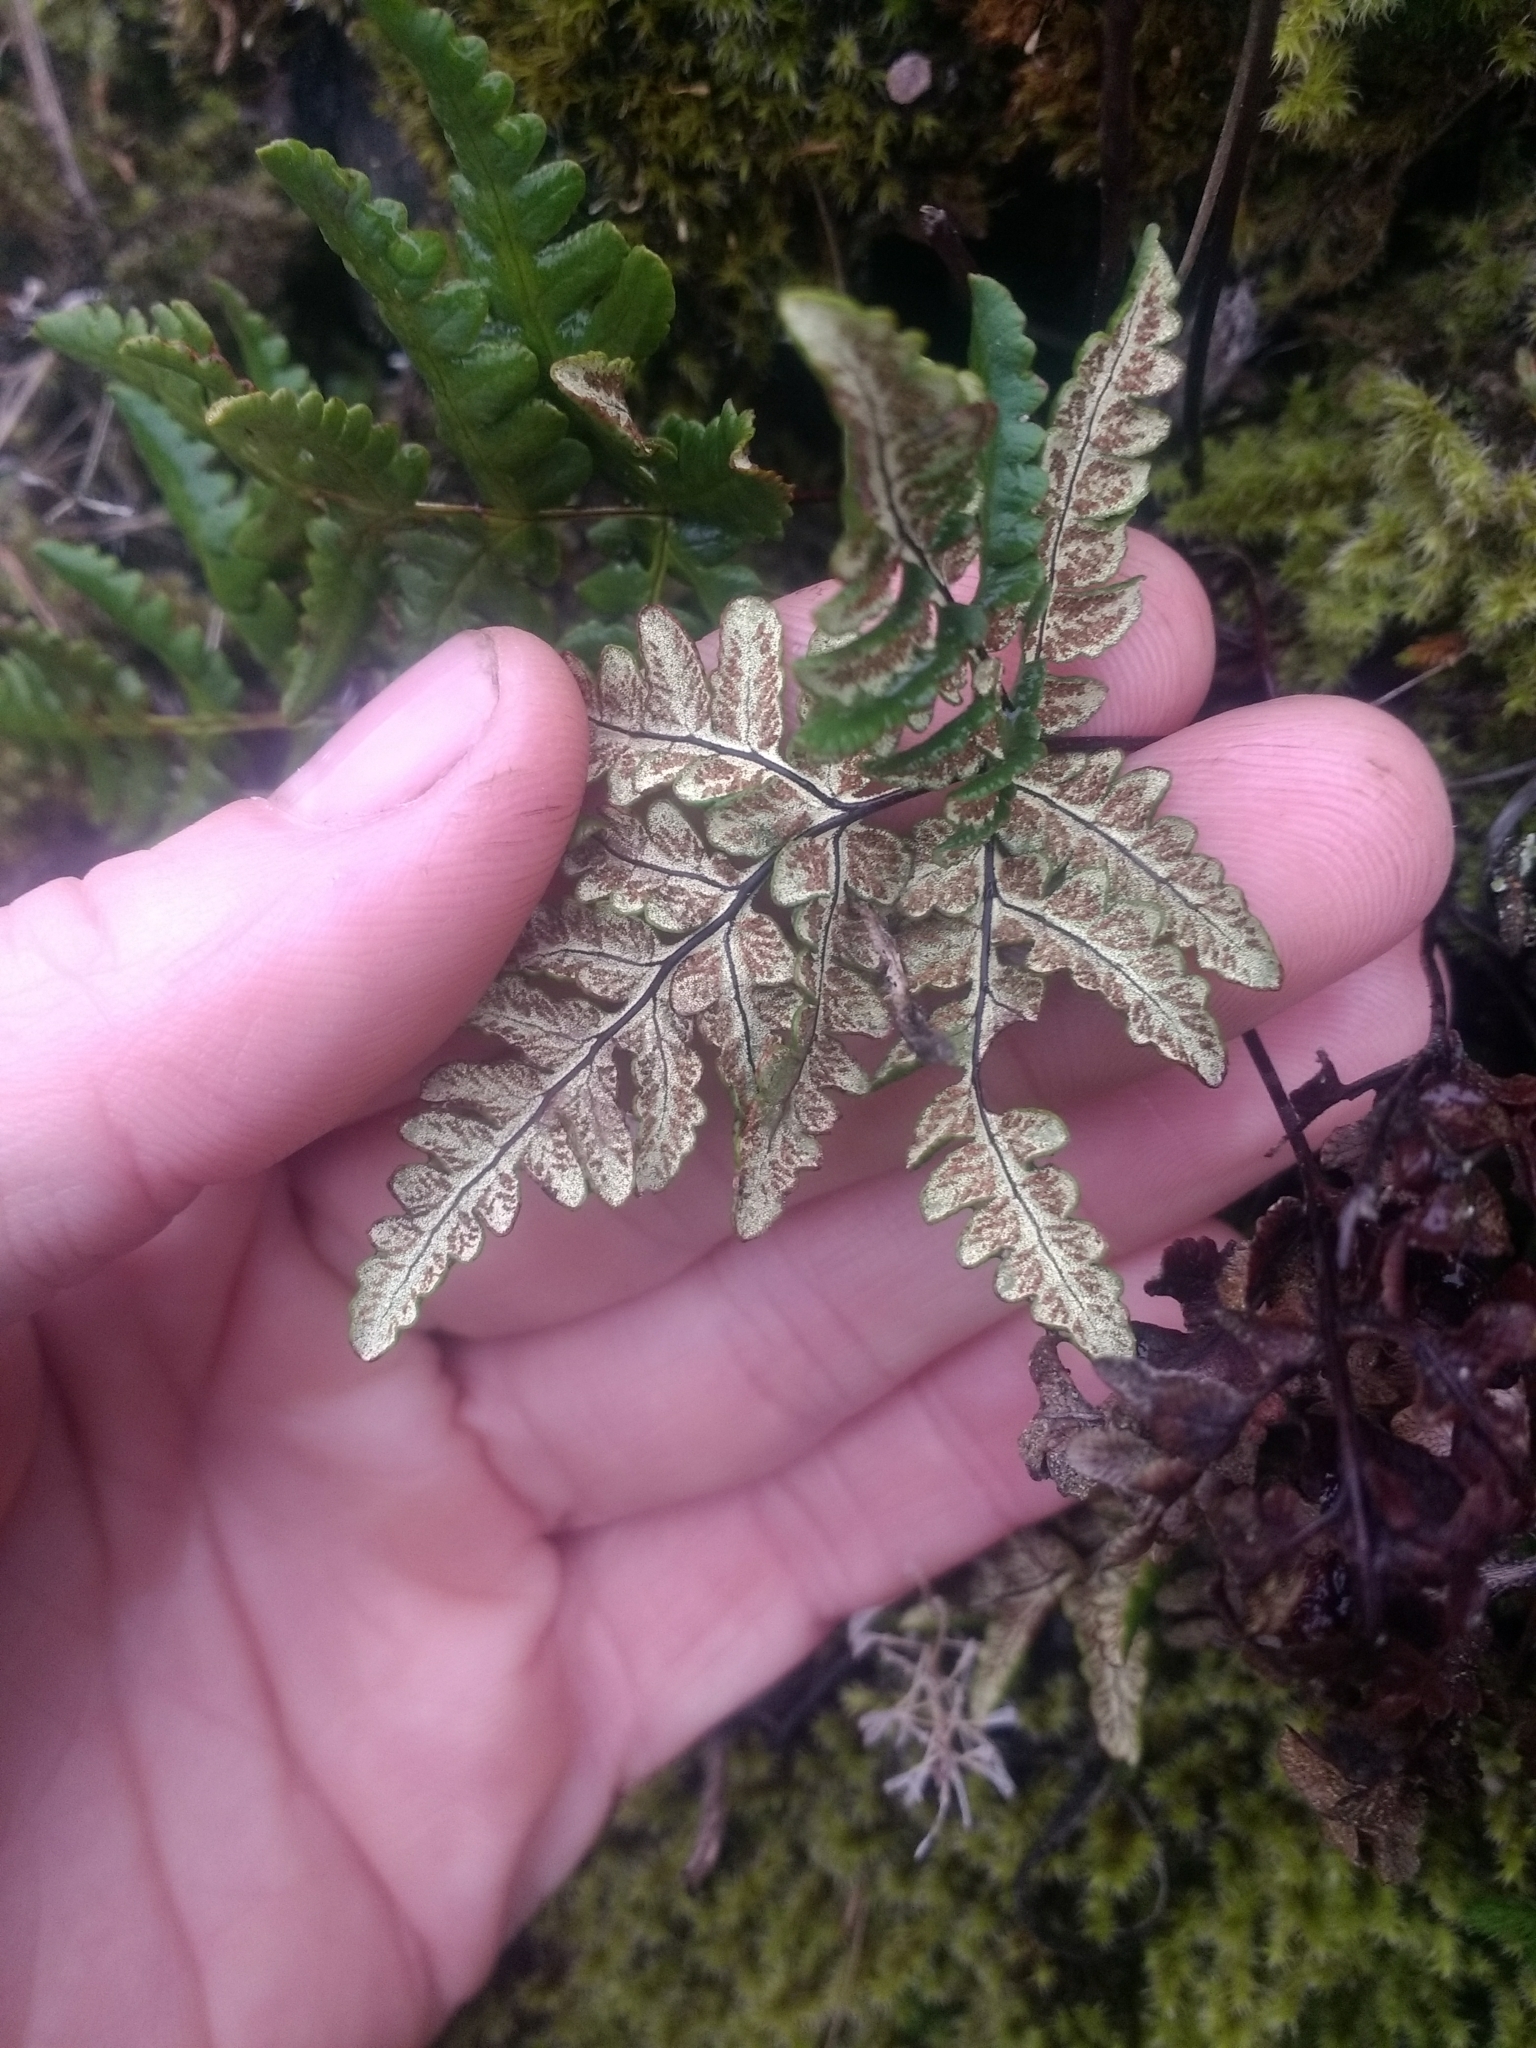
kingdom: Plantae
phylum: Tracheophyta
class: Polypodiopsida
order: Polypodiales
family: Pteridaceae
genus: Pentagramma
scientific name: Pentagramma triangularis
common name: Gold fern
